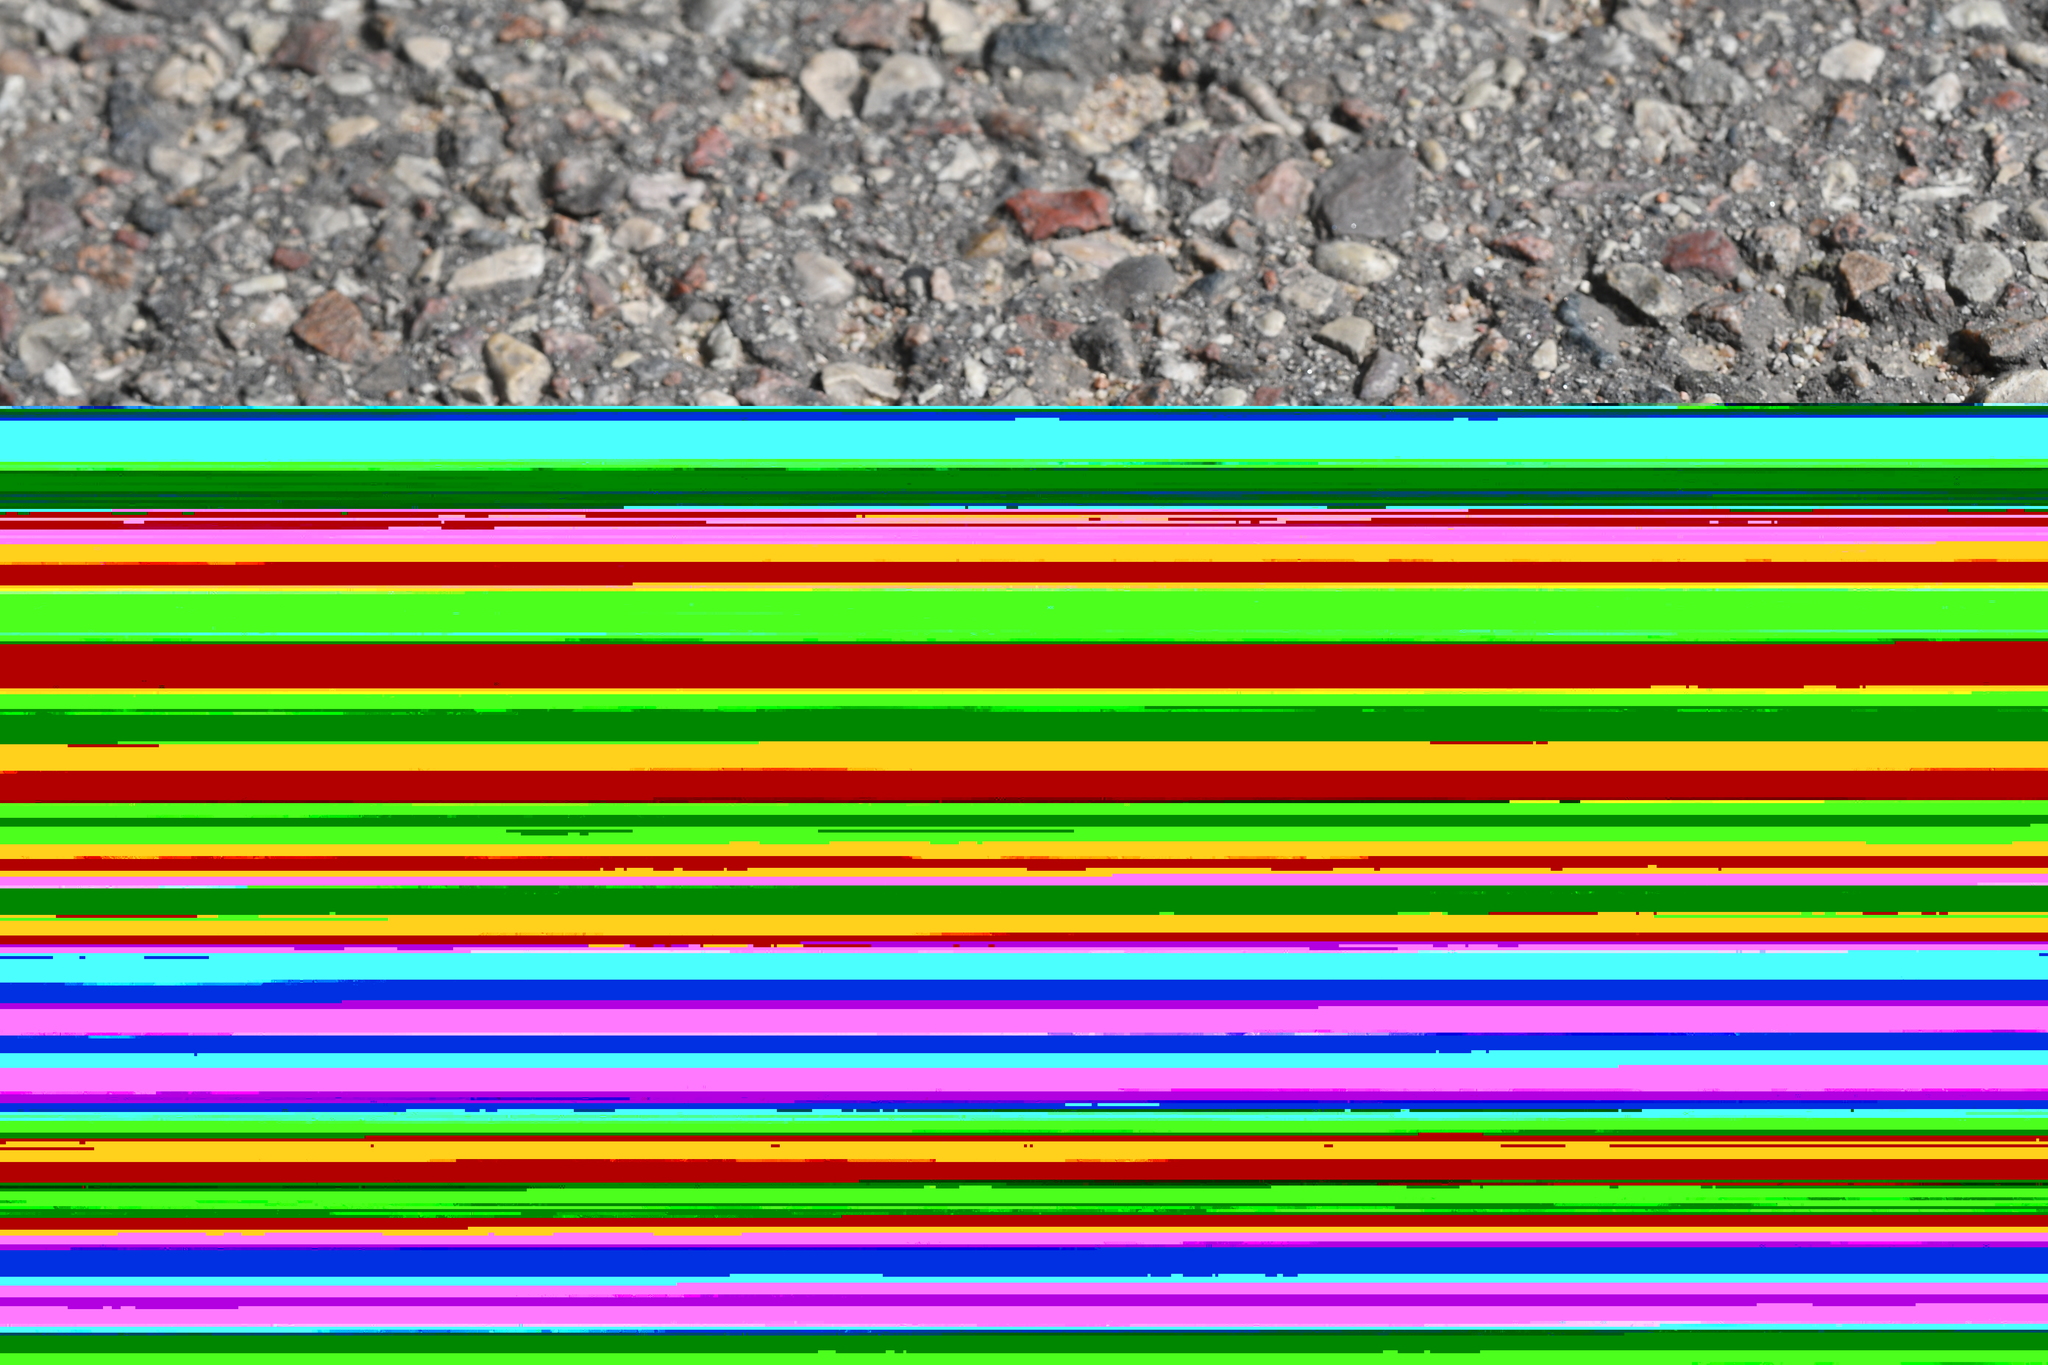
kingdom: Animalia
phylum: Chordata
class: Squamata
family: Colubridae
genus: Natrix
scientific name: Natrix natrix
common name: Grass snake
